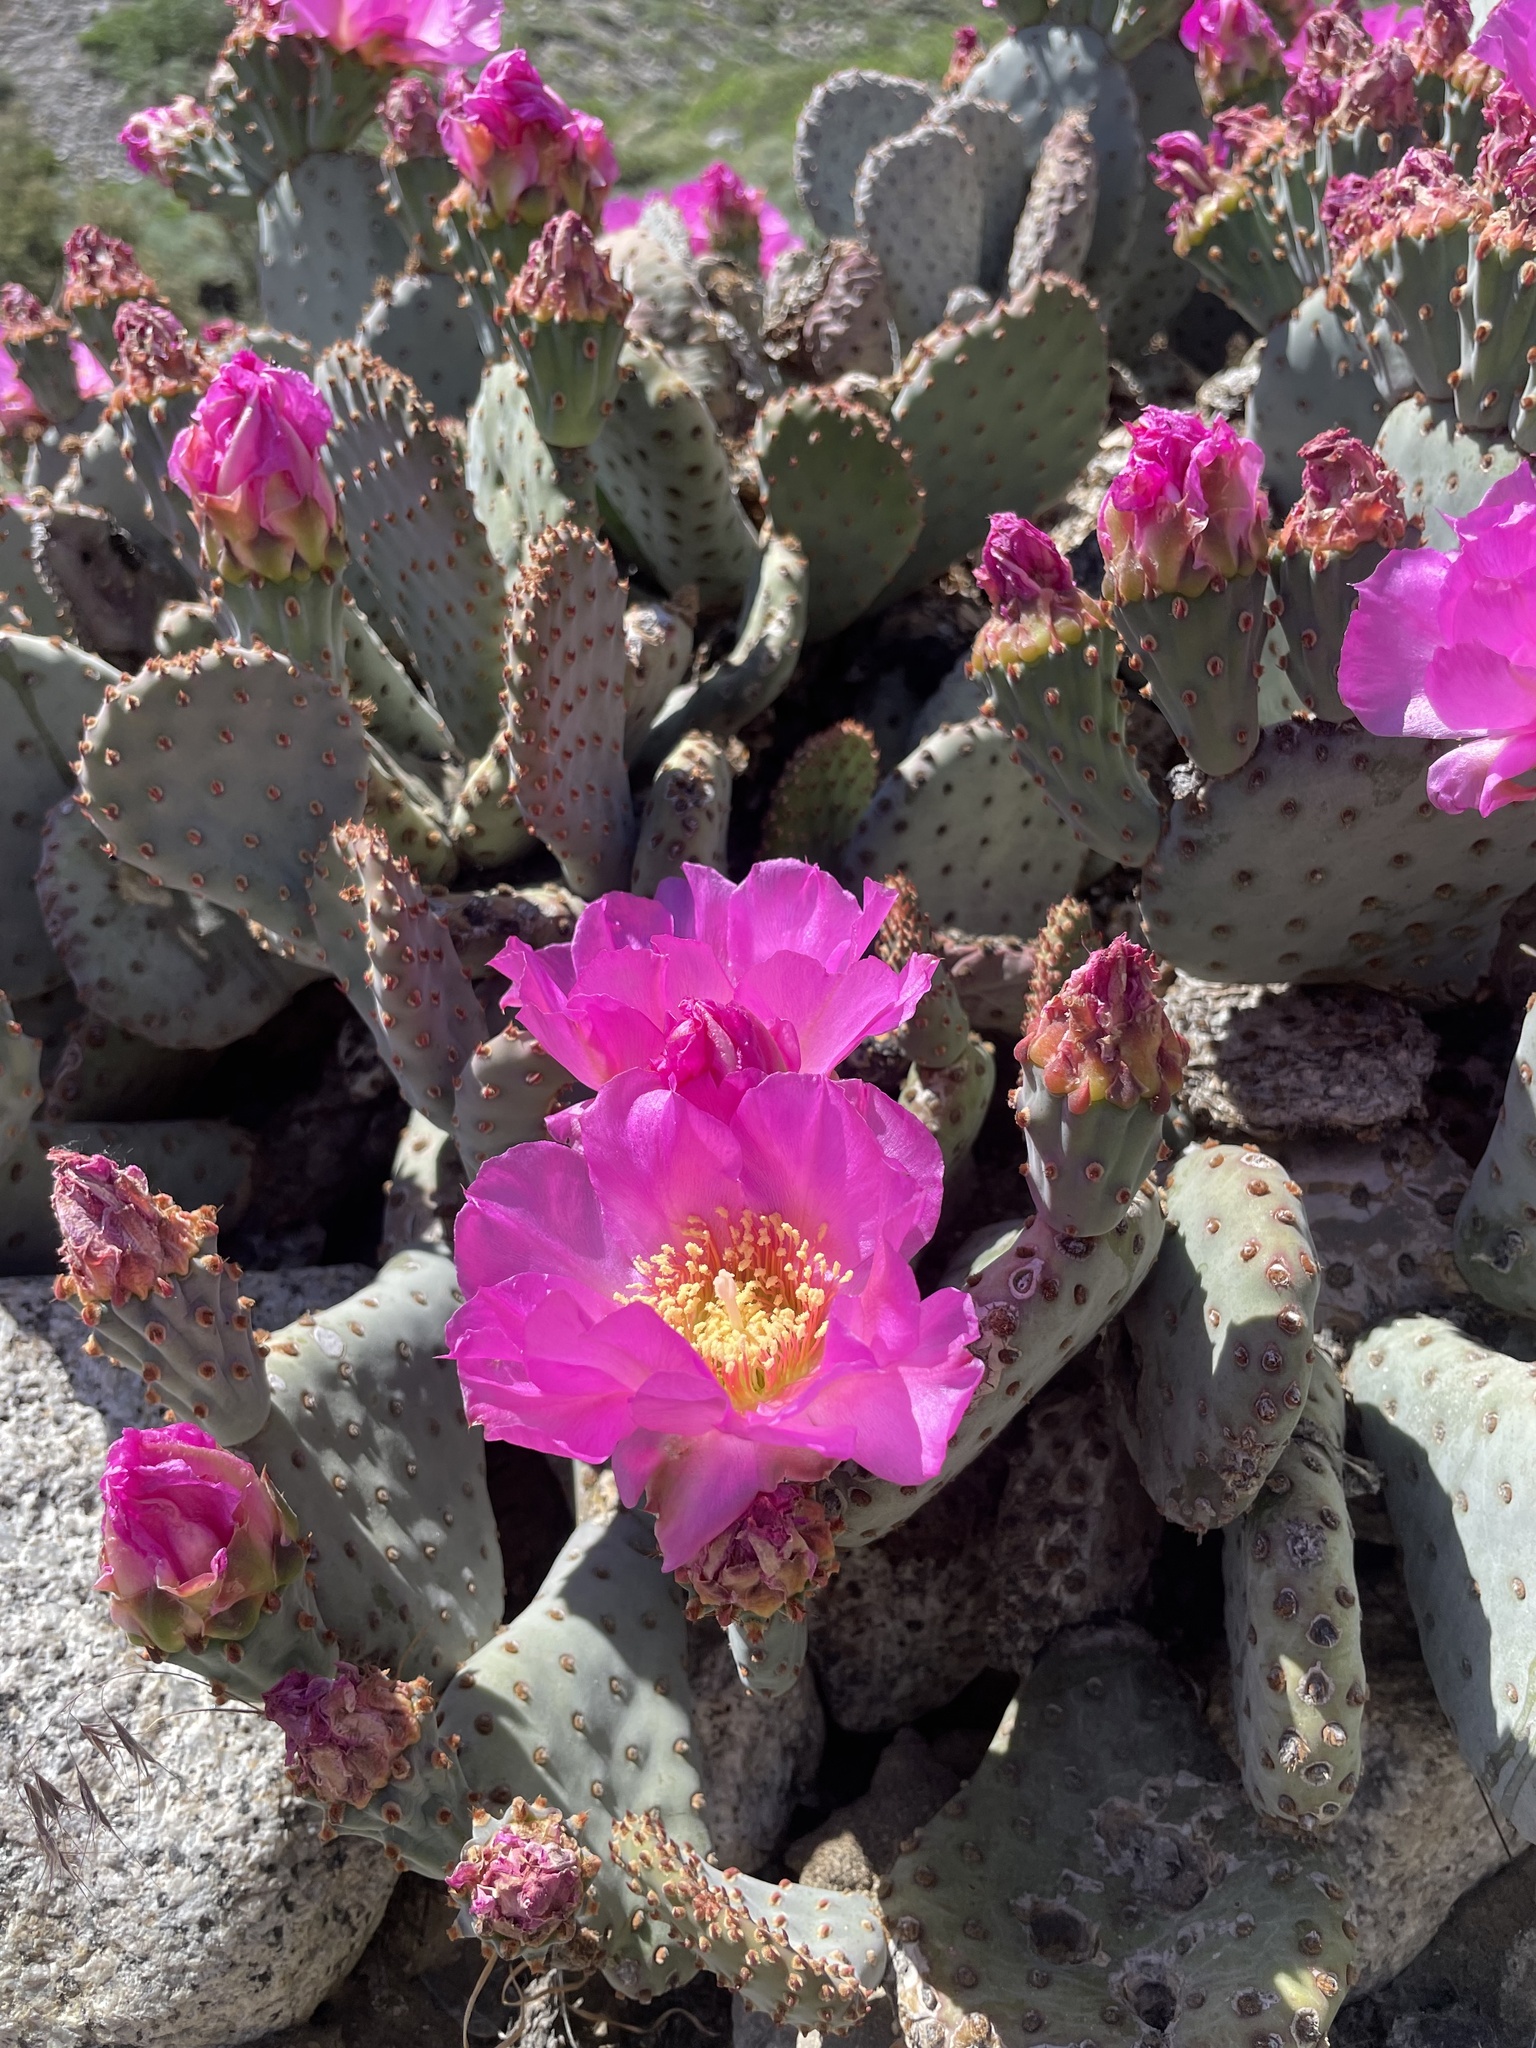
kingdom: Plantae
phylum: Tracheophyta
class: Magnoliopsida
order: Caryophyllales
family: Cactaceae
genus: Opuntia
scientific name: Opuntia basilaris
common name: Beavertail prickly-pear
